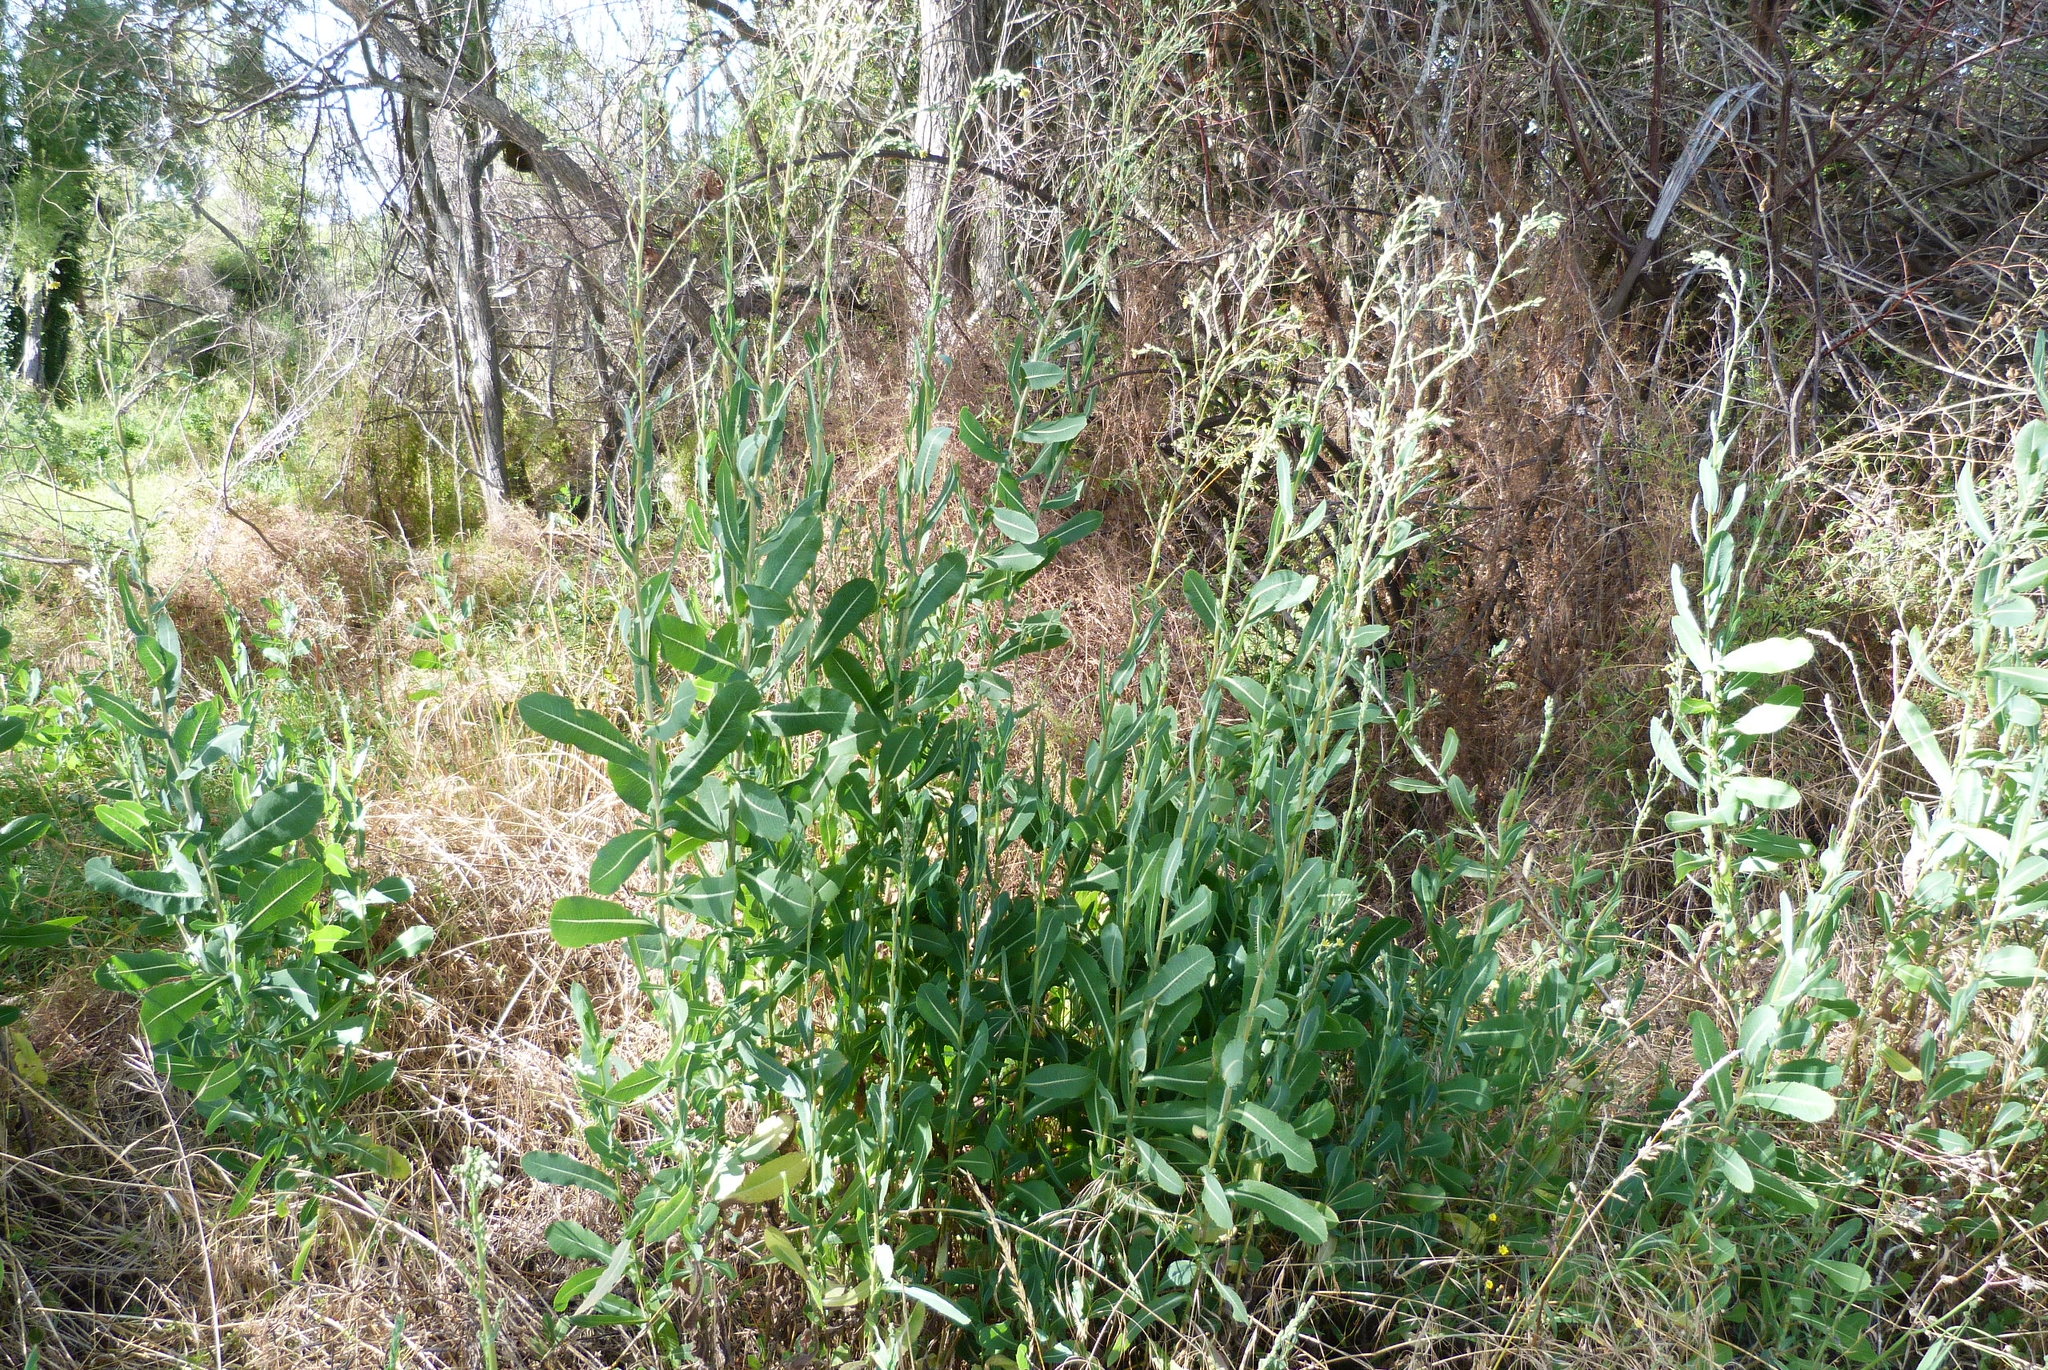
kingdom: Plantae
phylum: Tracheophyta
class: Magnoliopsida
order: Asterales
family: Asteraceae
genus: Lactuca
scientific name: Lactuca serriola
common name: Prickly lettuce
